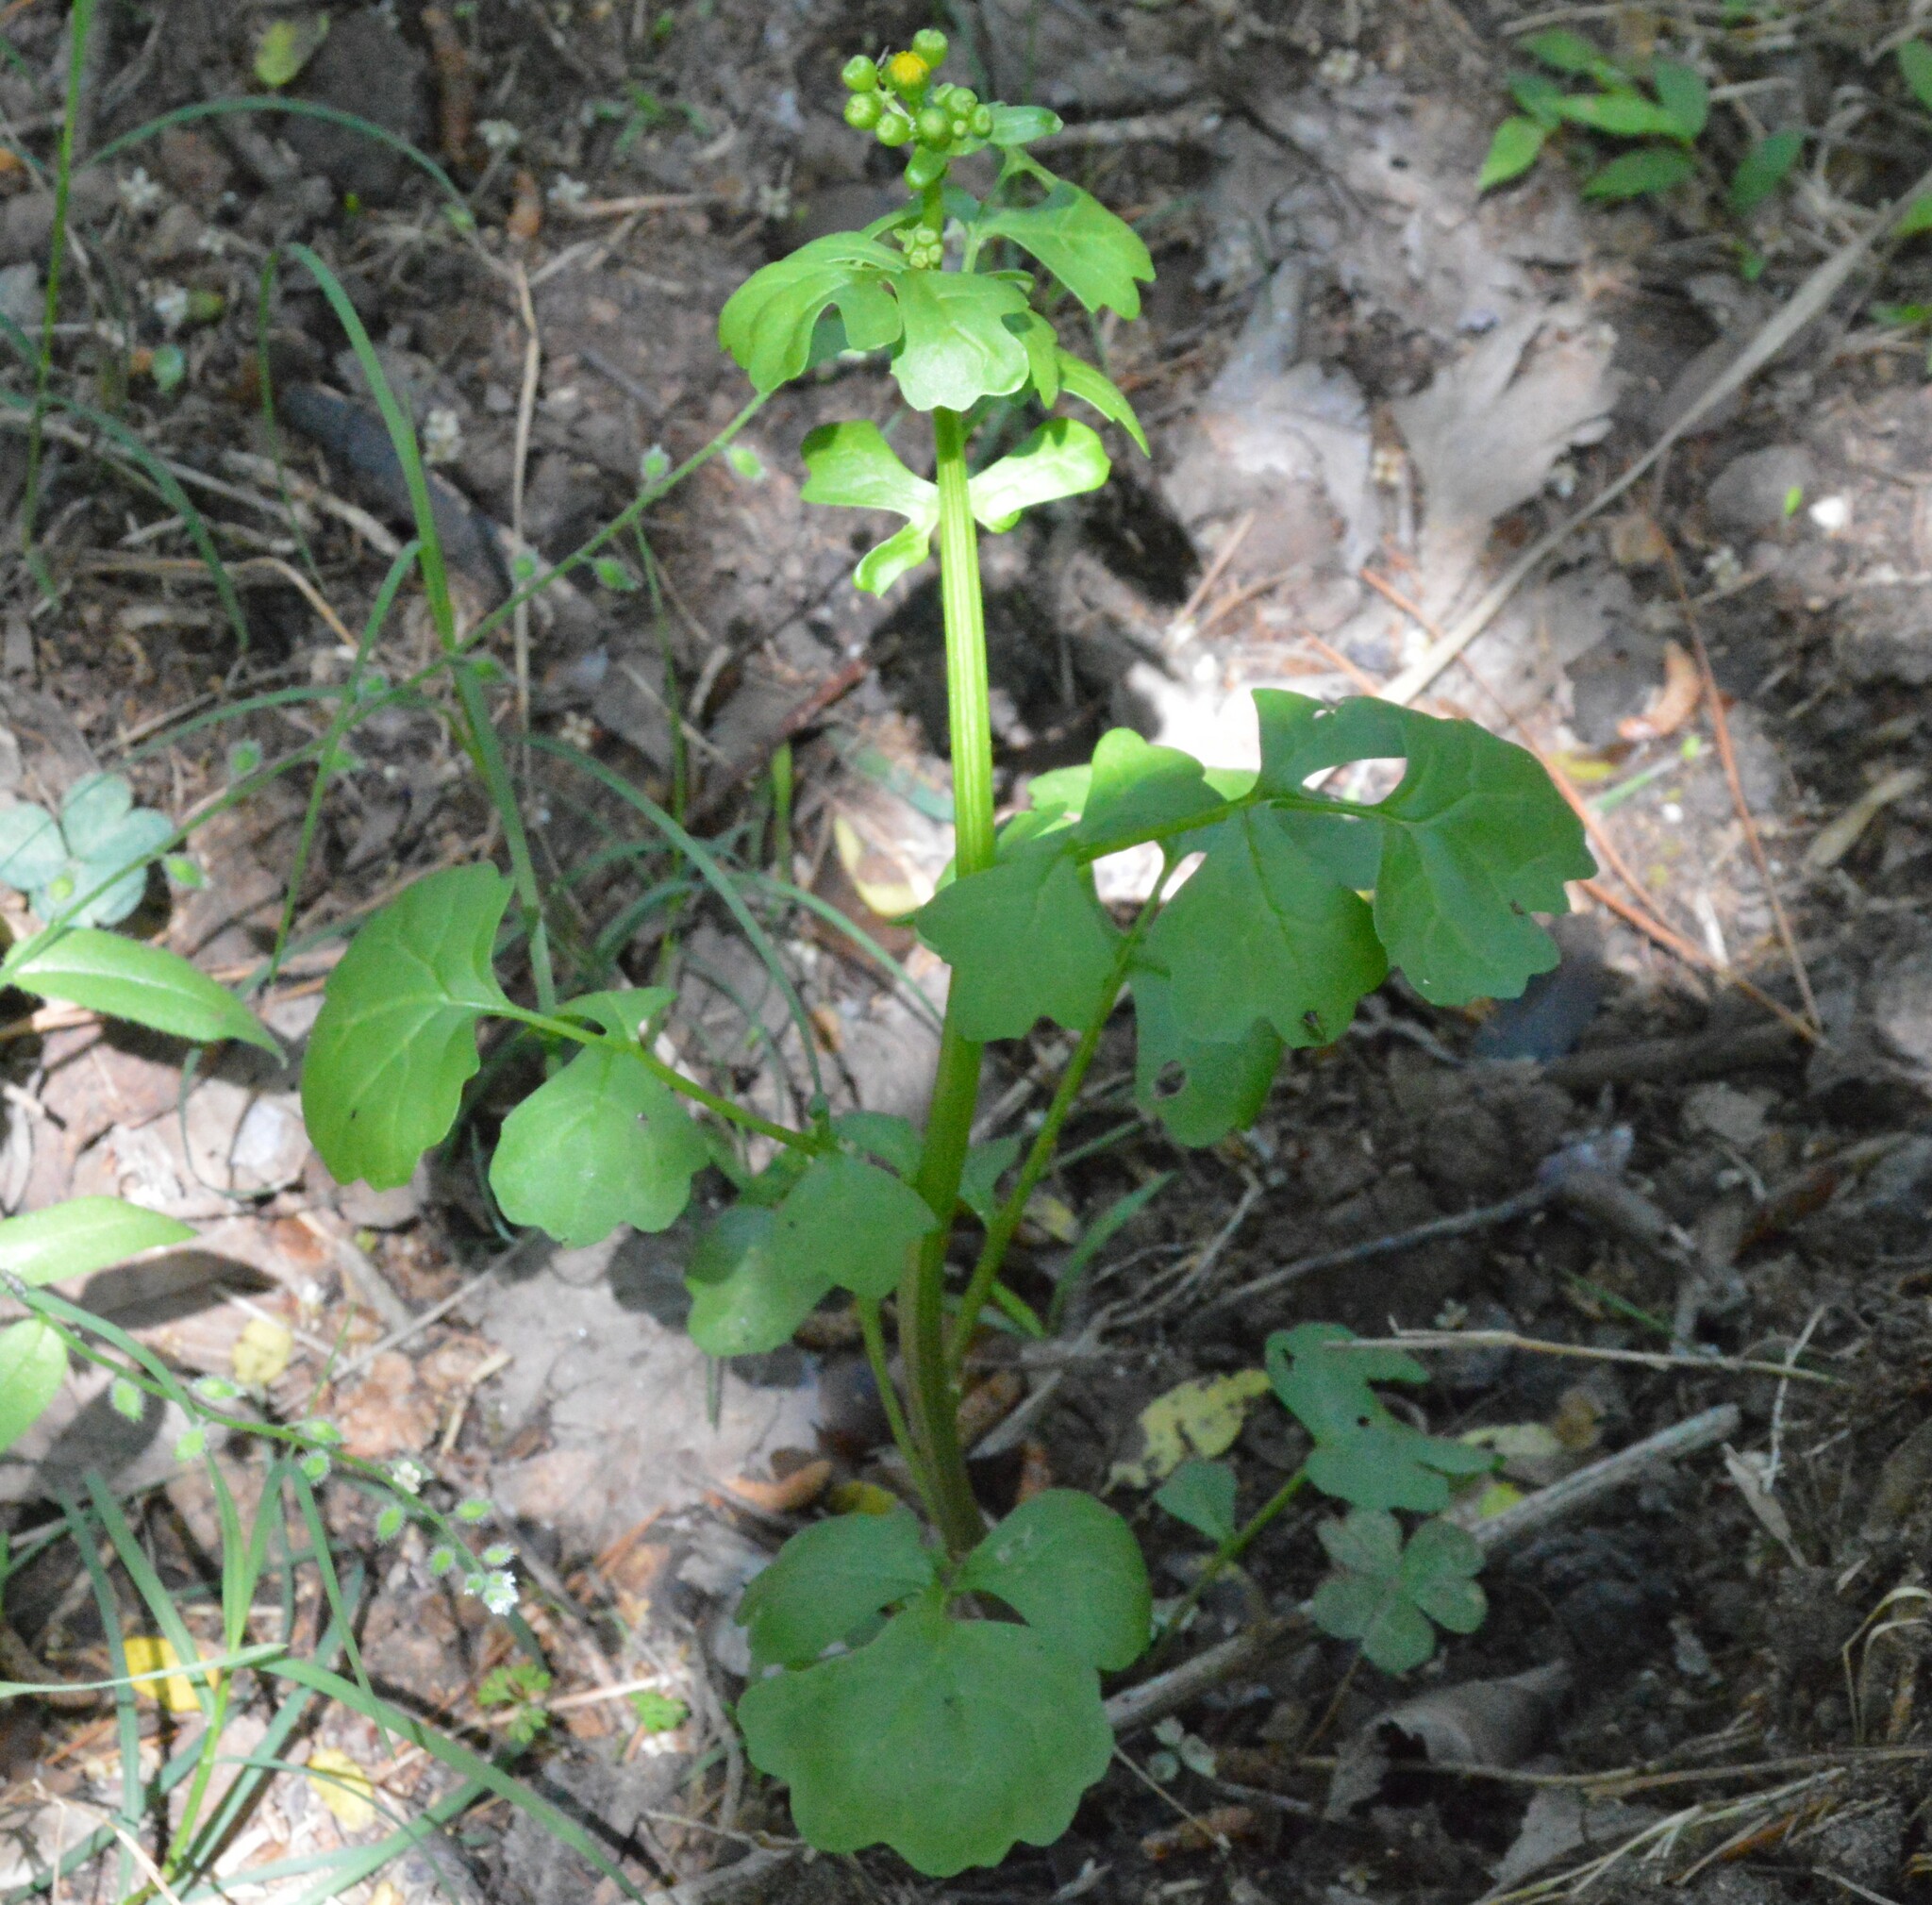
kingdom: Plantae
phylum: Tracheophyta
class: Magnoliopsida
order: Asterales
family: Asteraceae
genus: Packera
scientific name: Packera glabella
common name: Butterweed
